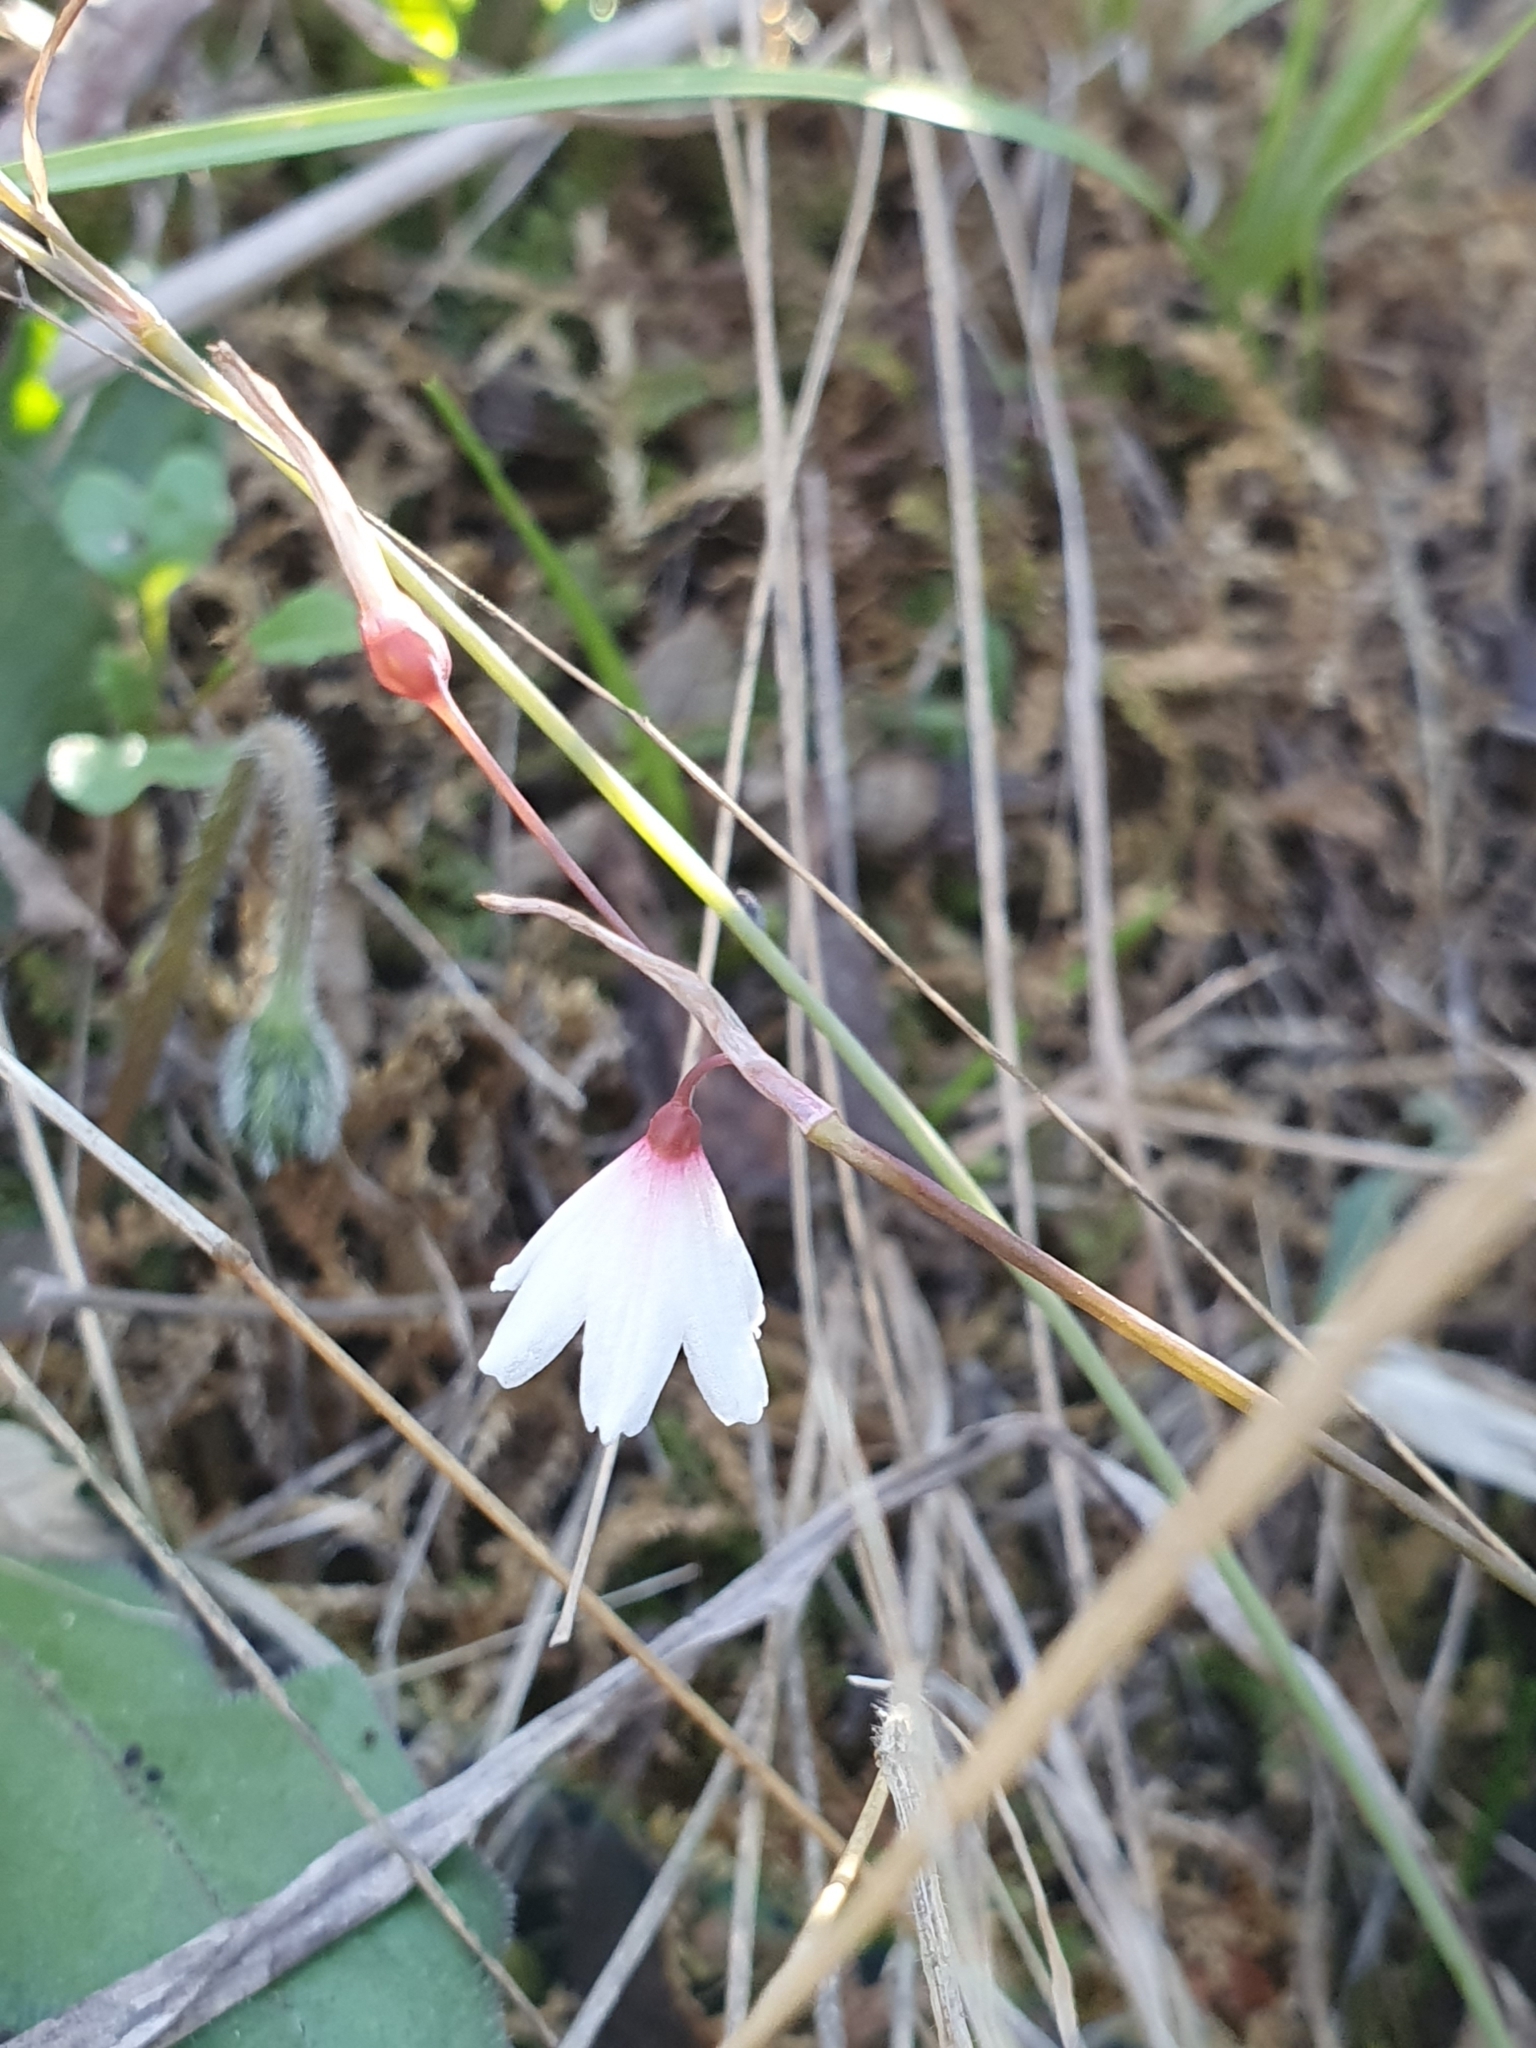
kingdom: Plantae
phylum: Tracheophyta
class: Liliopsida
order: Asparagales
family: Amaryllidaceae
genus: Acis
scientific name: Acis autumnalis
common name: Autumn snowflake
